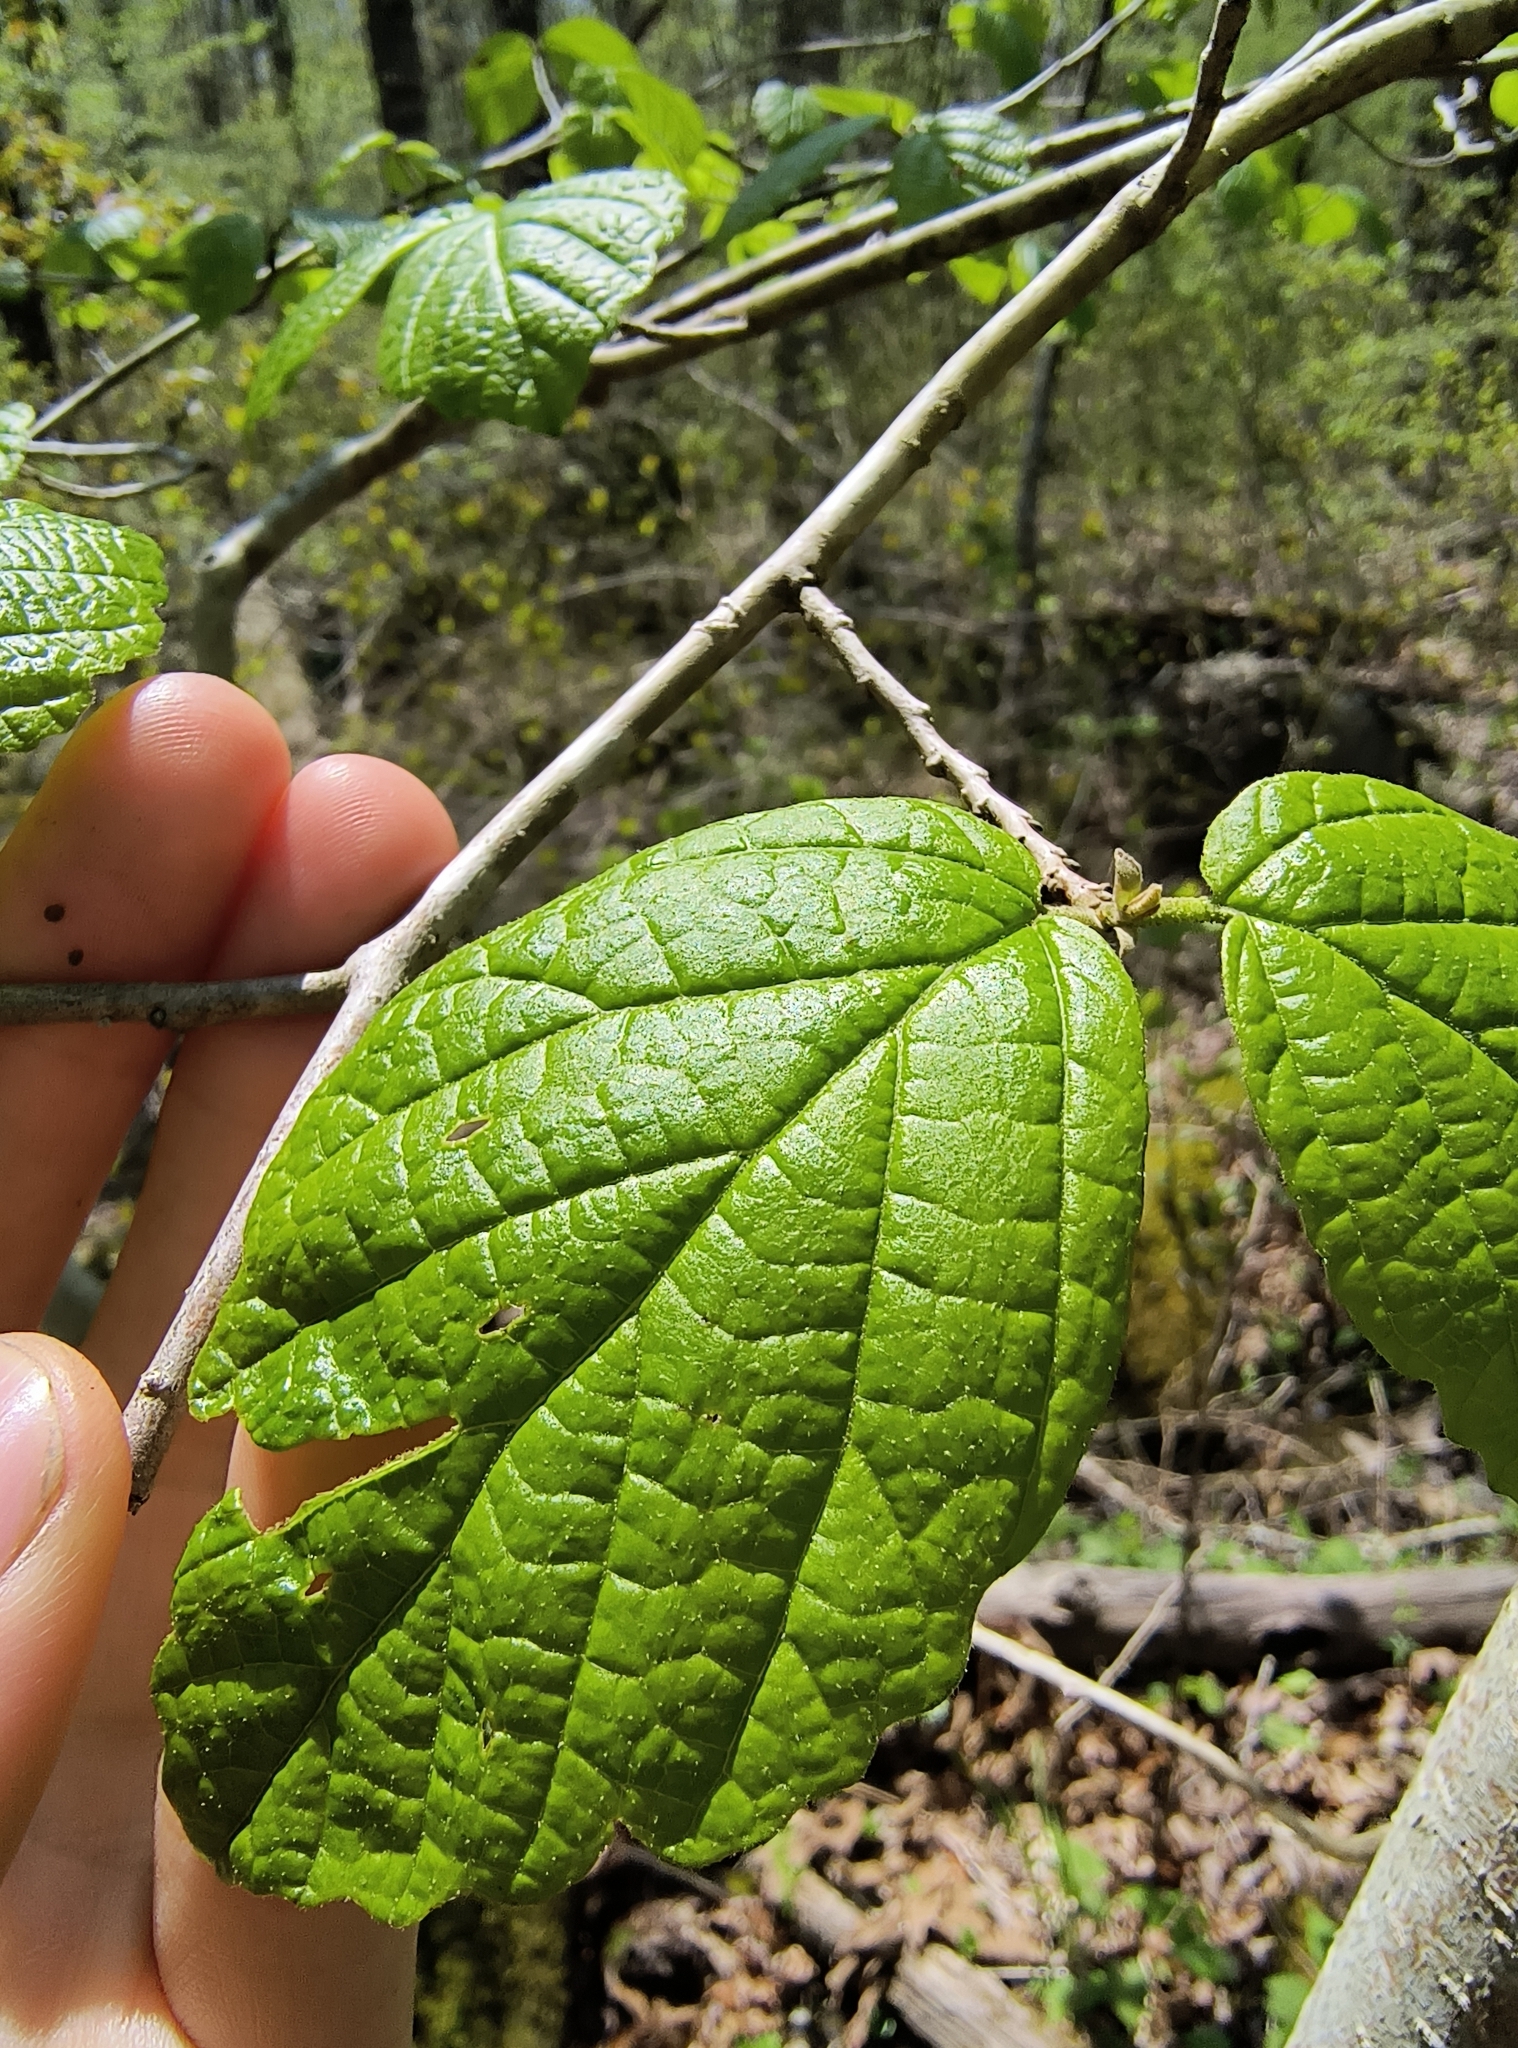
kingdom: Plantae
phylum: Tracheophyta
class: Magnoliopsida
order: Saxifragales
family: Hamamelidaceae
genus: Hamamelis
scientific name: Hamamelis virginiana
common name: Witch-hazel
